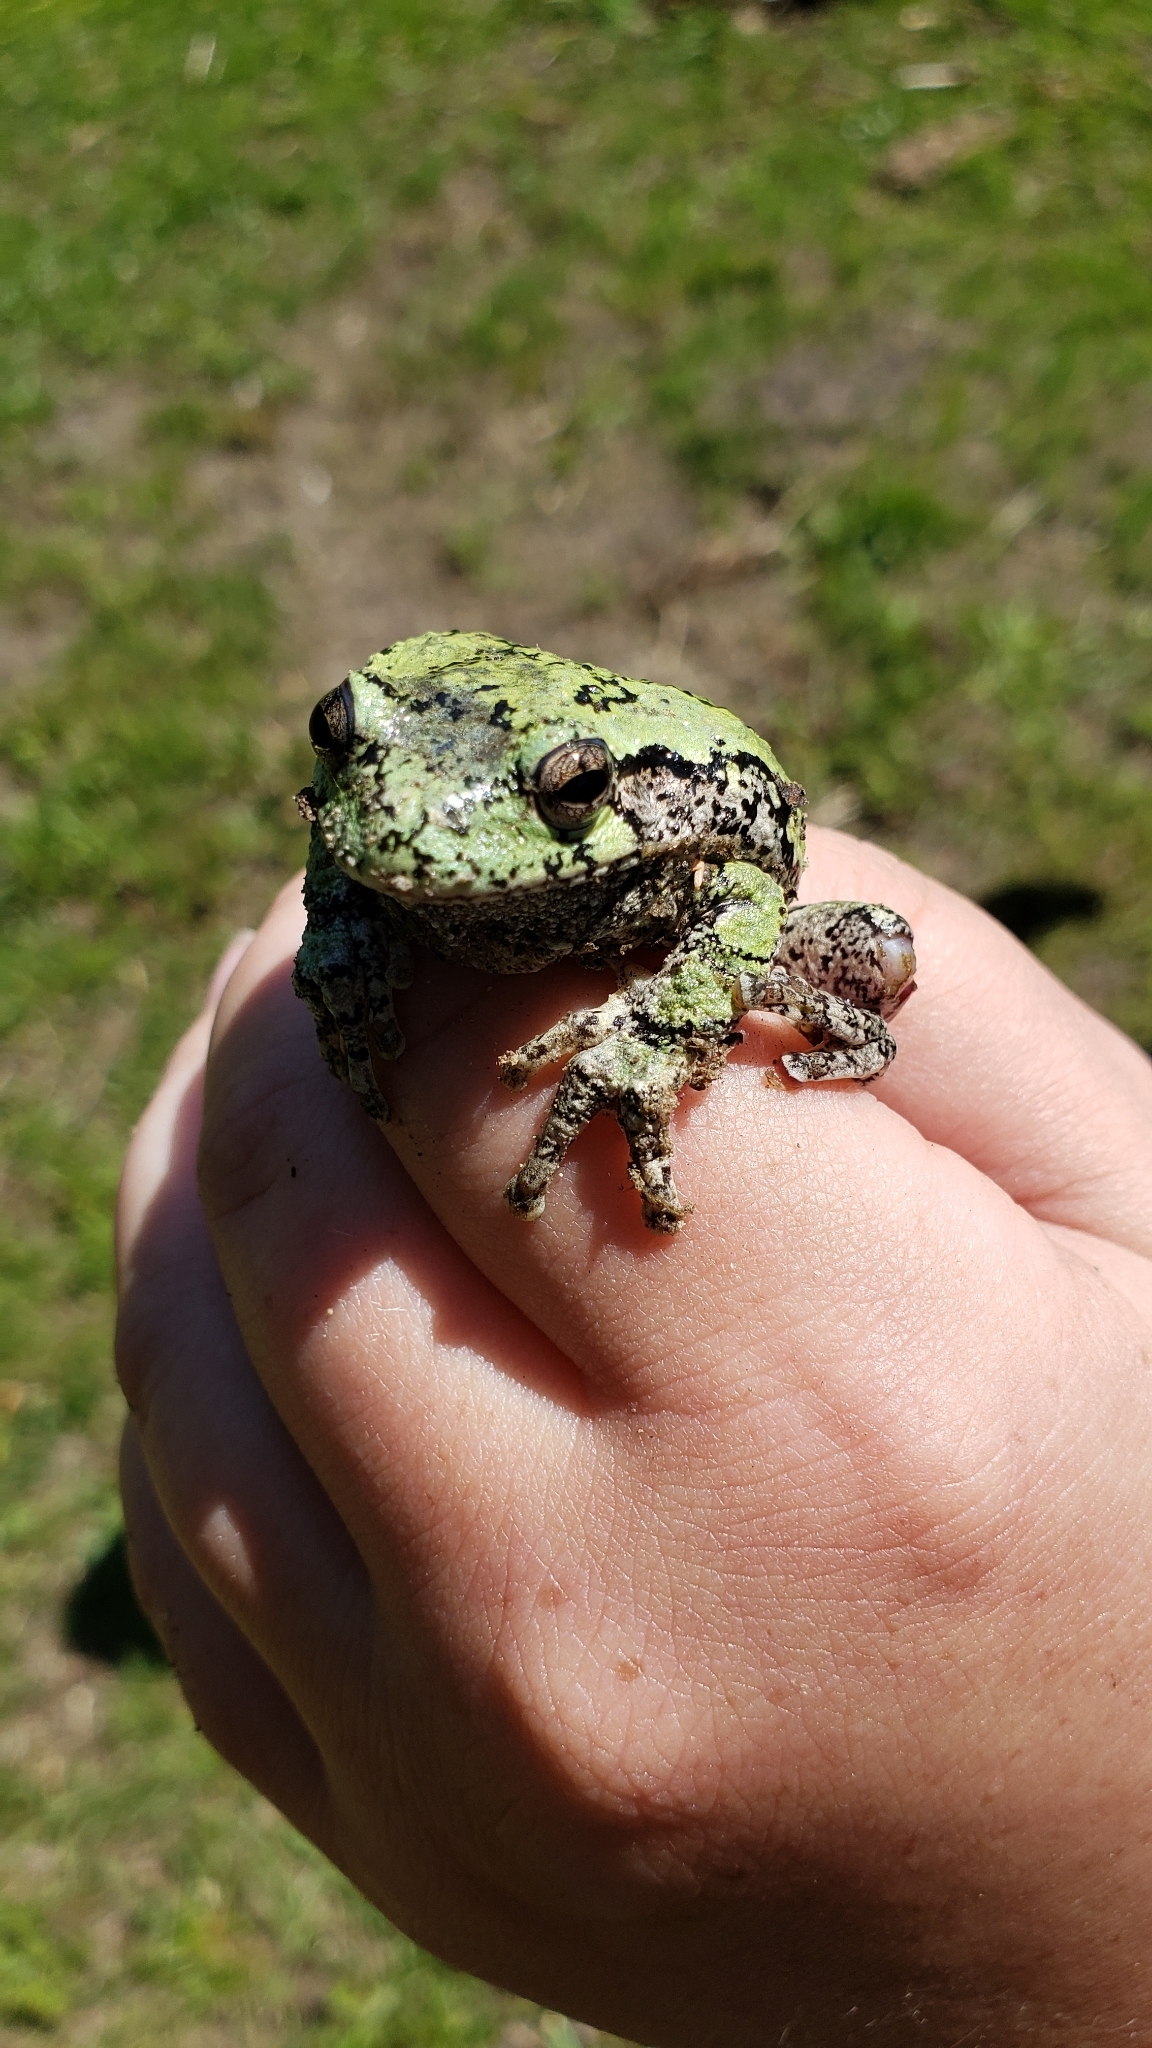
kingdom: Animalia
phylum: Chordata
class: Amphibia
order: Anura
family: Hylidae
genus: Dryophytes
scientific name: Dryophytes versicolor
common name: Gray treefrog
